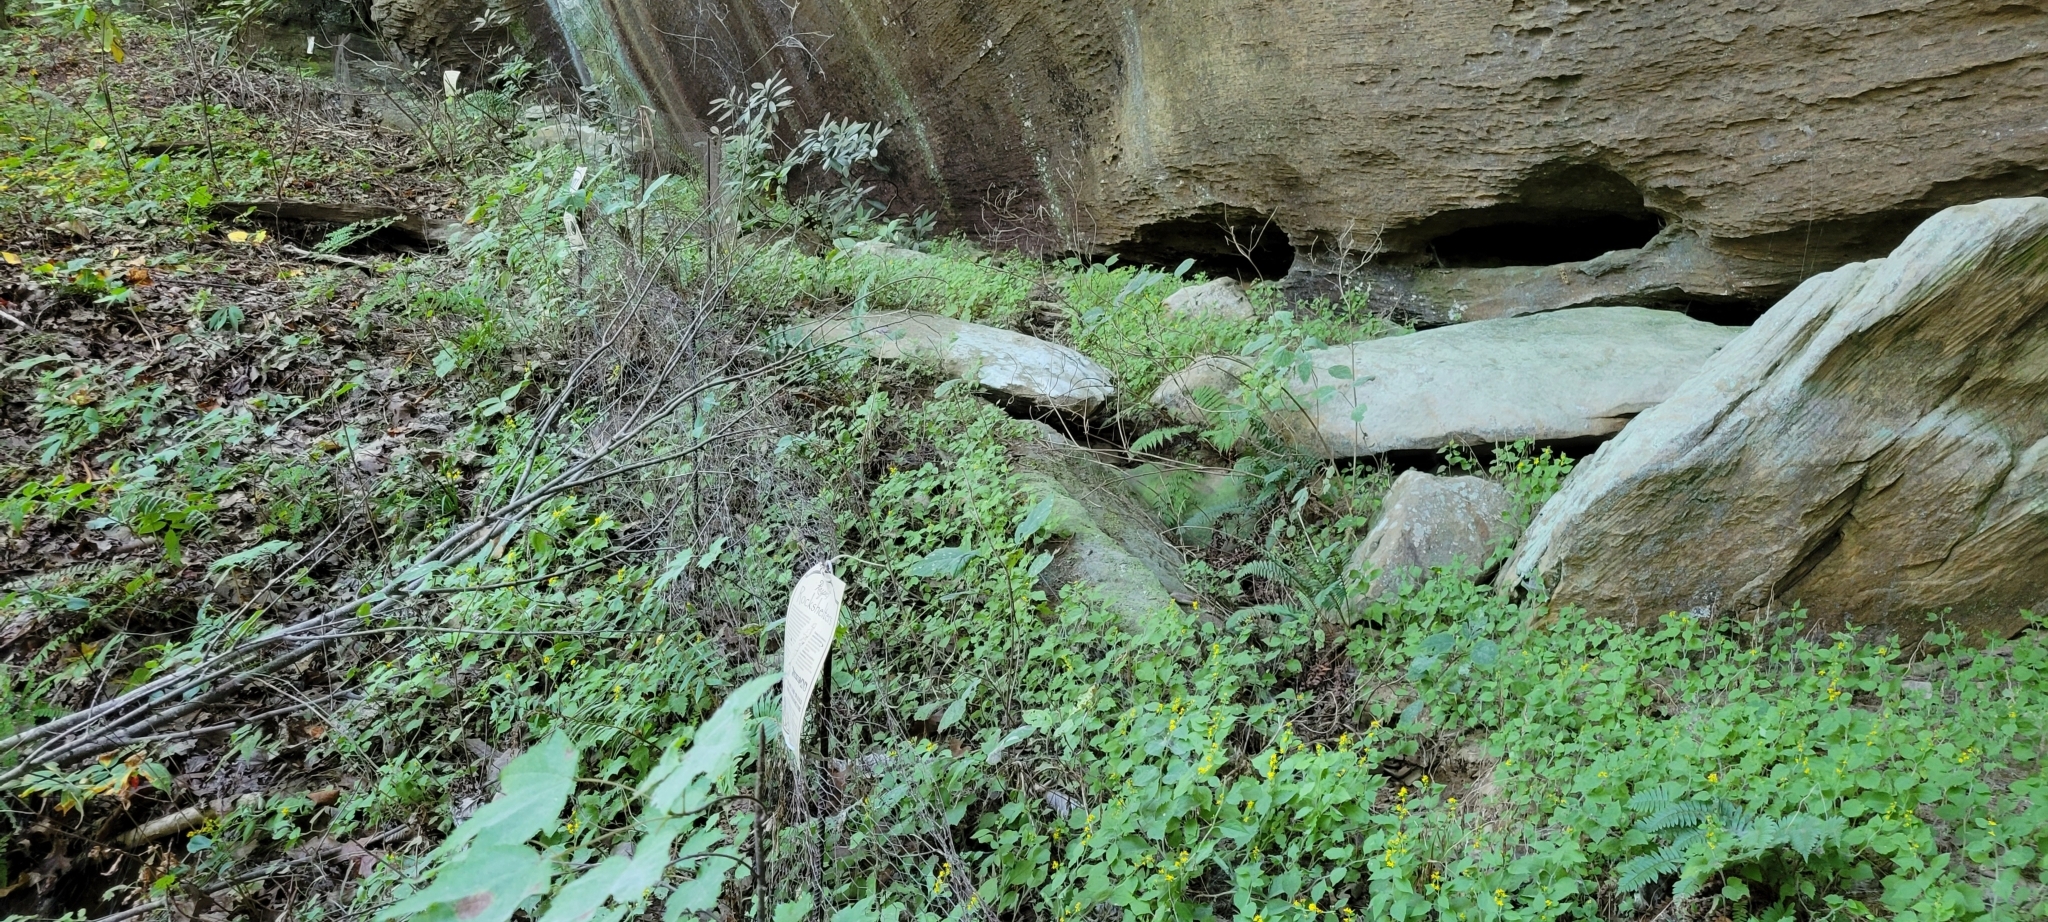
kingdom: Plantae
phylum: Tracheophyta
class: Magnoliopsida
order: Asterales
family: Asteraceae
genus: Solidago
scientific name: Solidago albopilosa
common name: White-hair goldenrod
